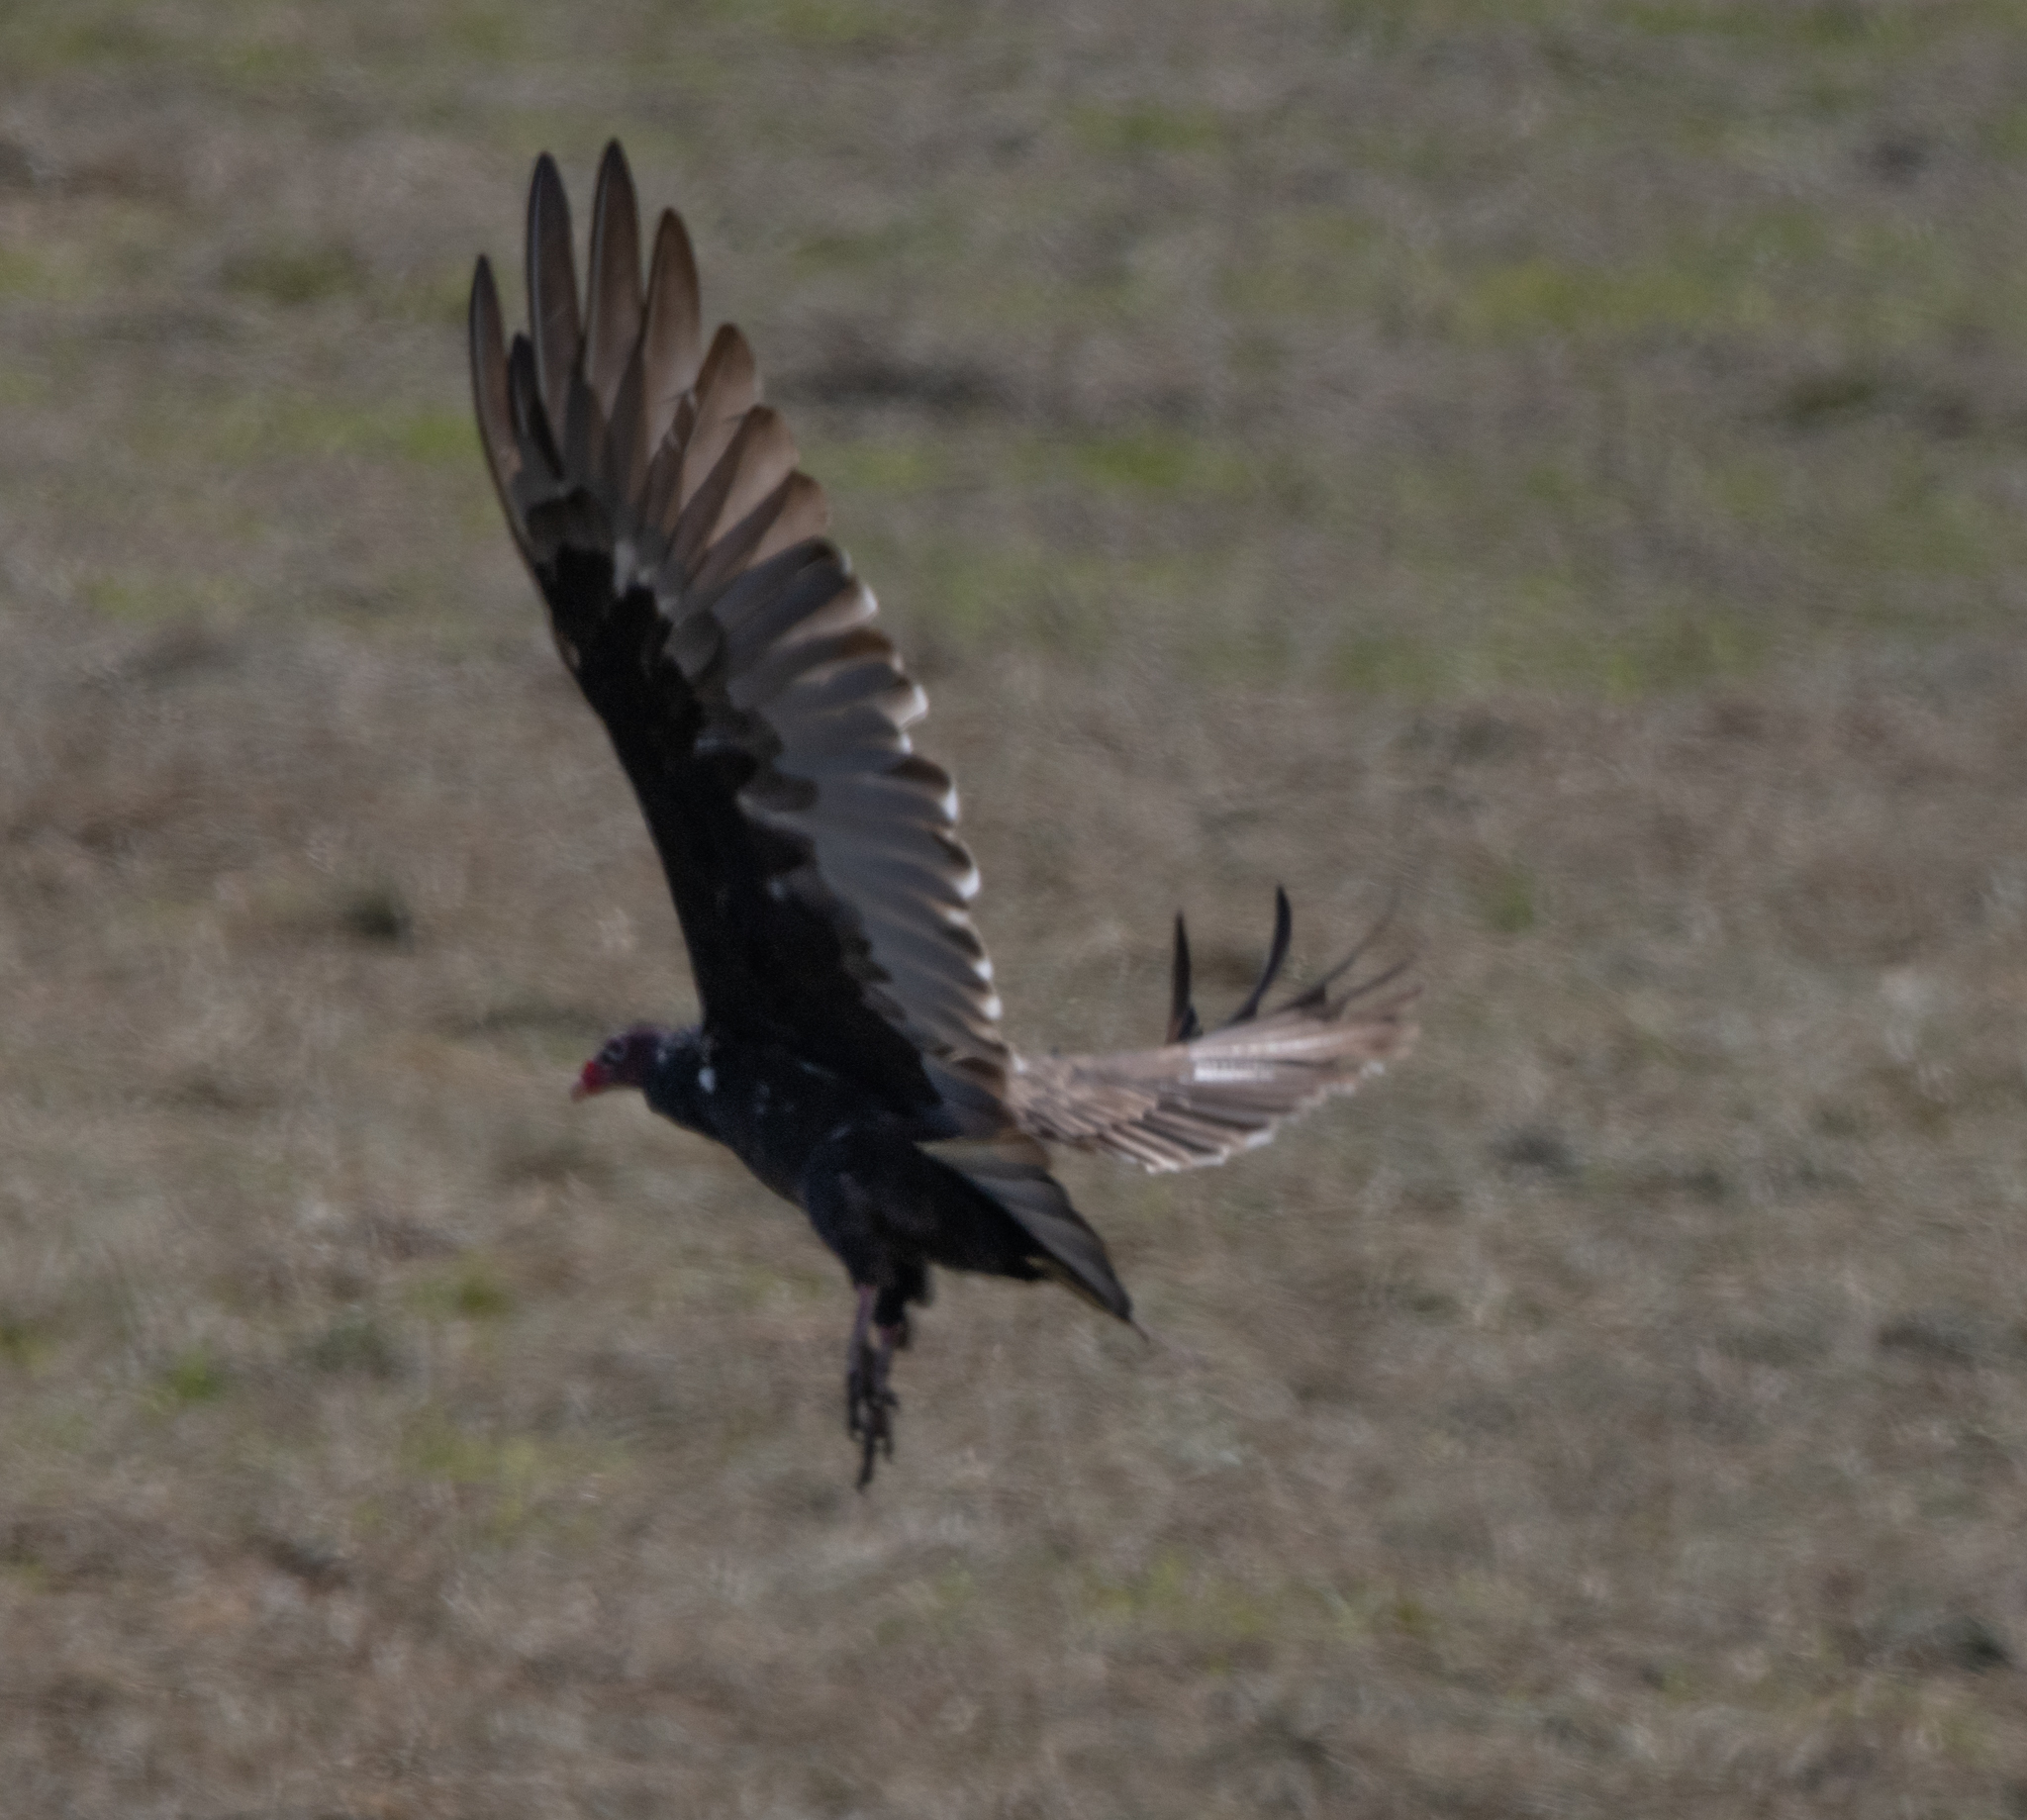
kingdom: Animalia
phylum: Chordata
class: Aves
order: Accipitriformes
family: Cathartidae
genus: Cathartes
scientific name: Cathartes aura
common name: Turkey vulture
